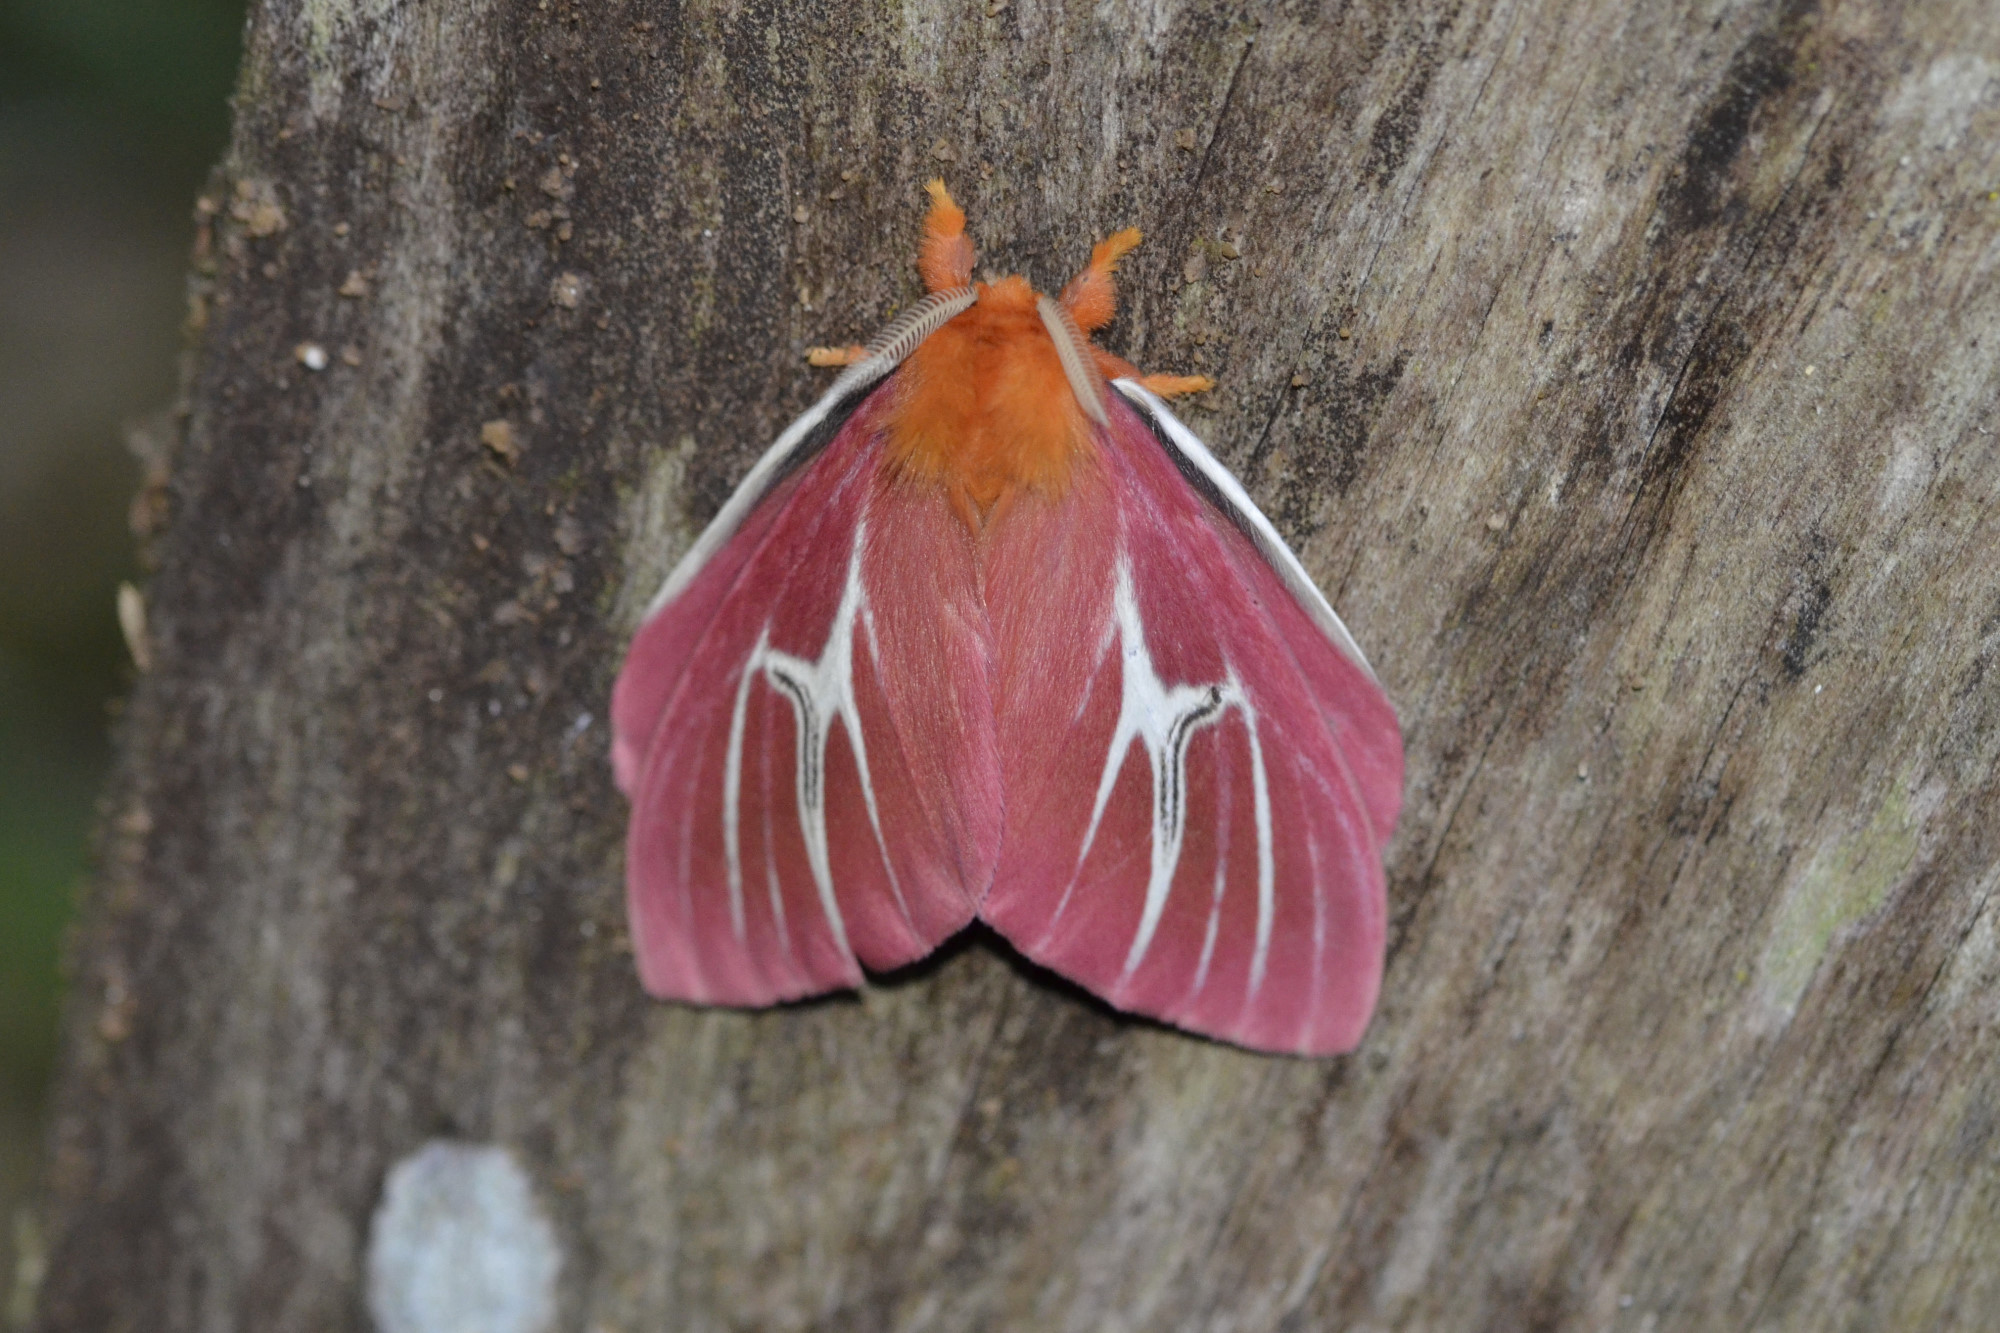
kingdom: Animalia
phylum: Arthropoda
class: Insecta
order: Lepidoptera
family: Saturniidae
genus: Cerodirphia
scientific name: Cerodirphia candida
